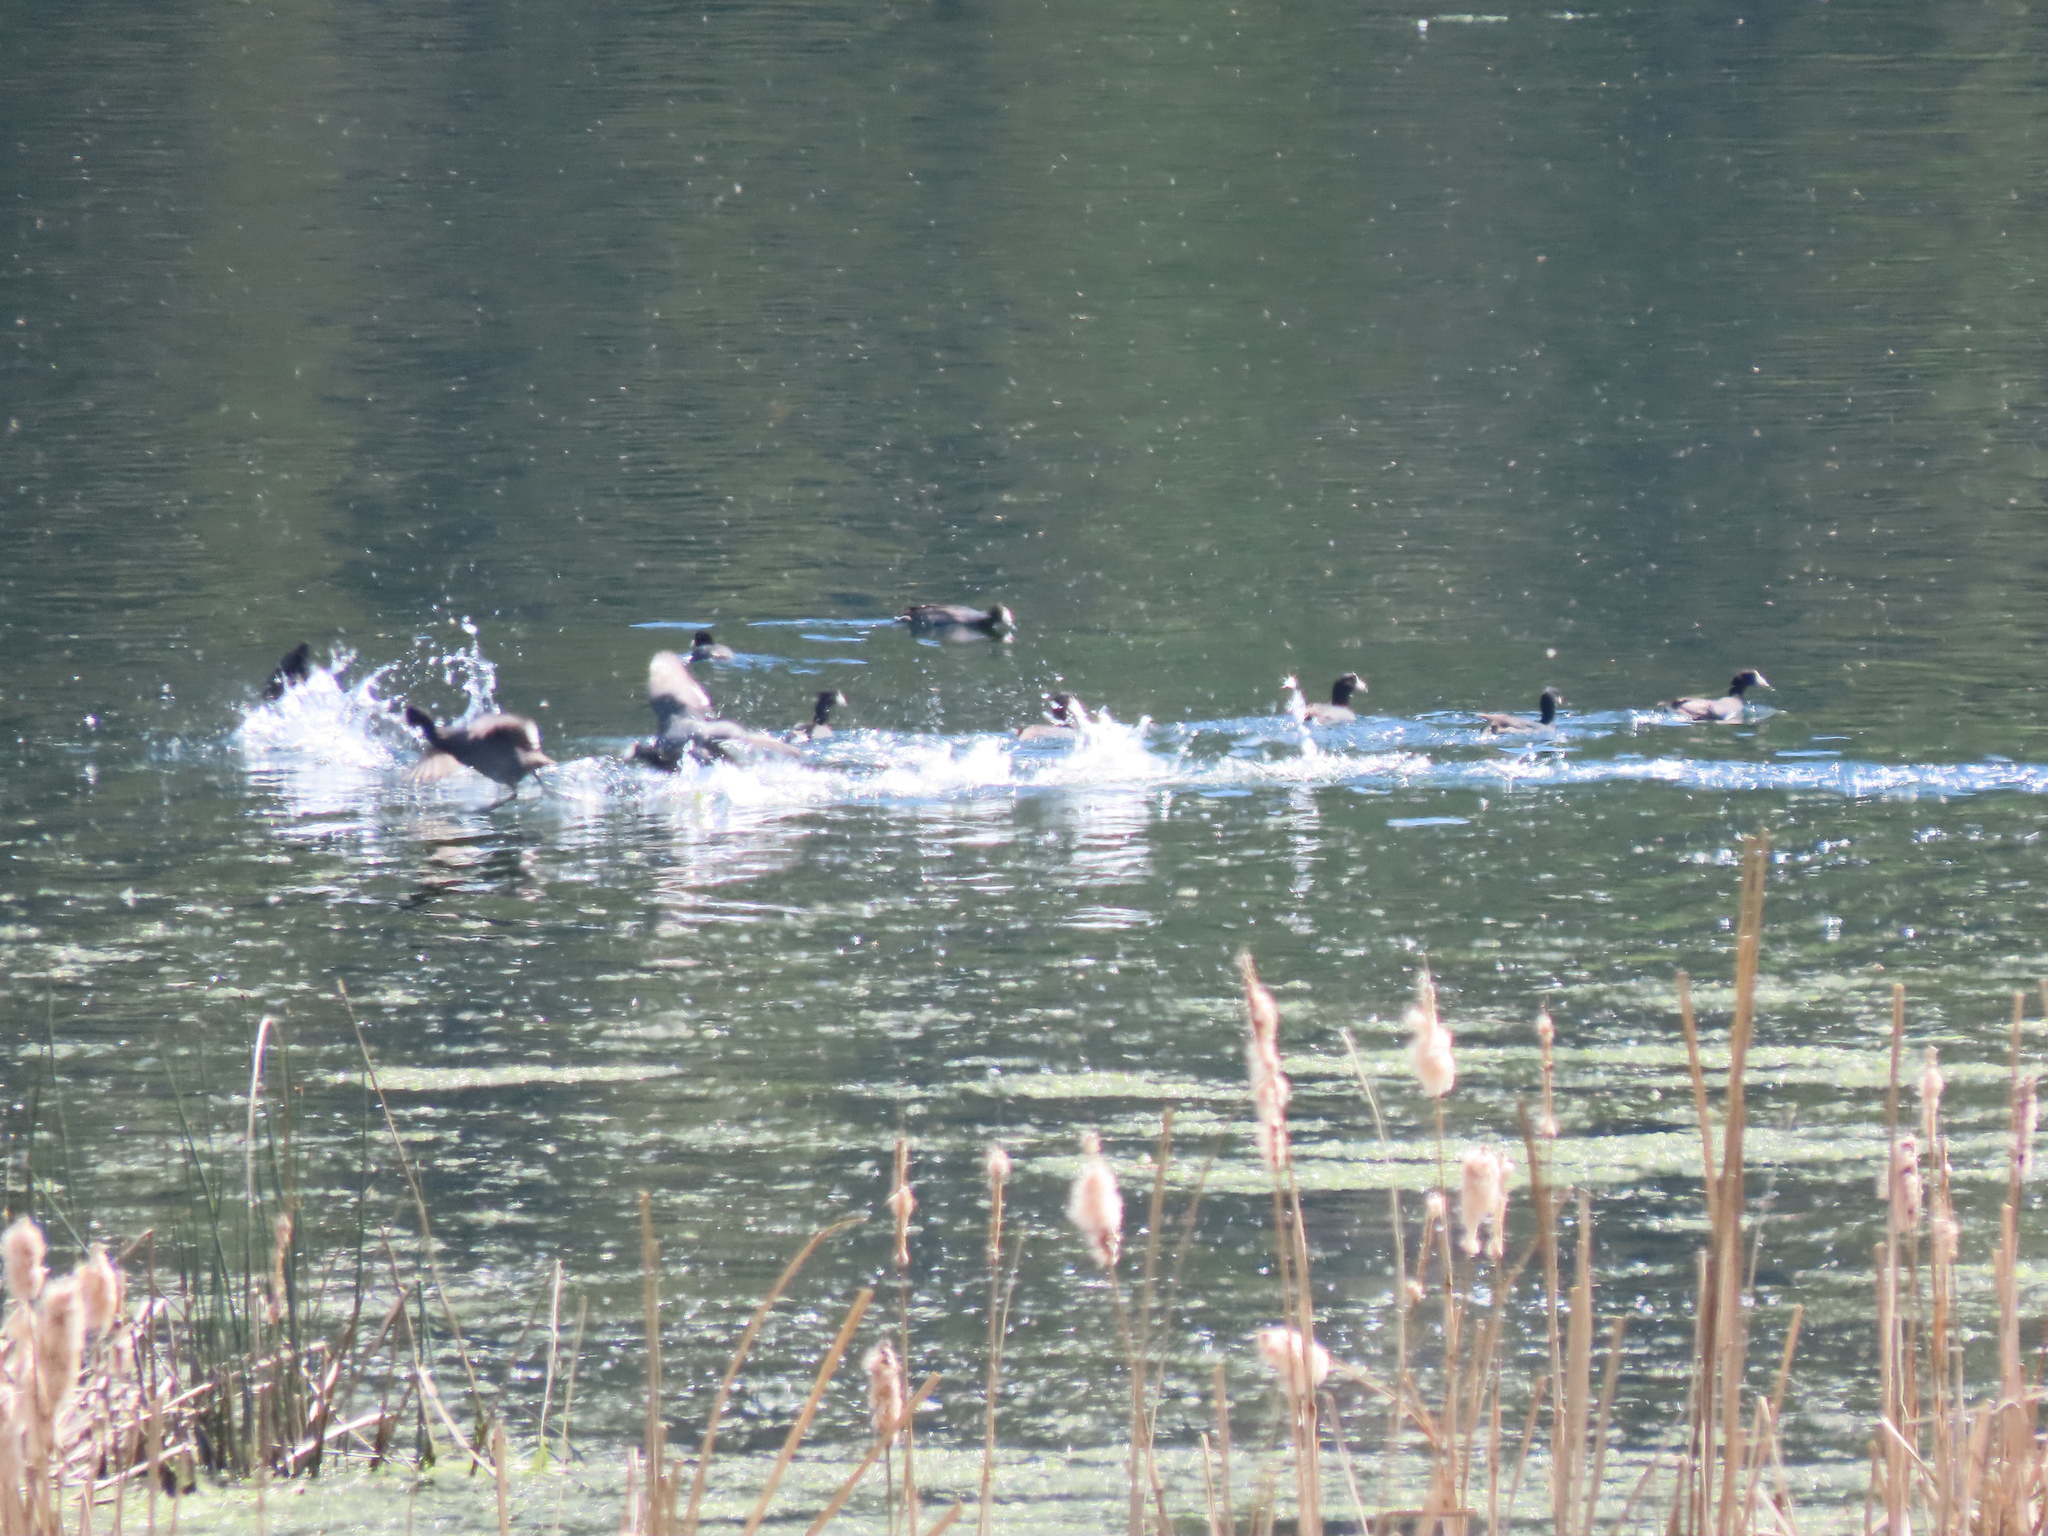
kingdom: Animalia
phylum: Chordata
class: Aves
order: Gruiformes
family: Rallidae
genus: Fulica
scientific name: Fulica americana
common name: American coot
